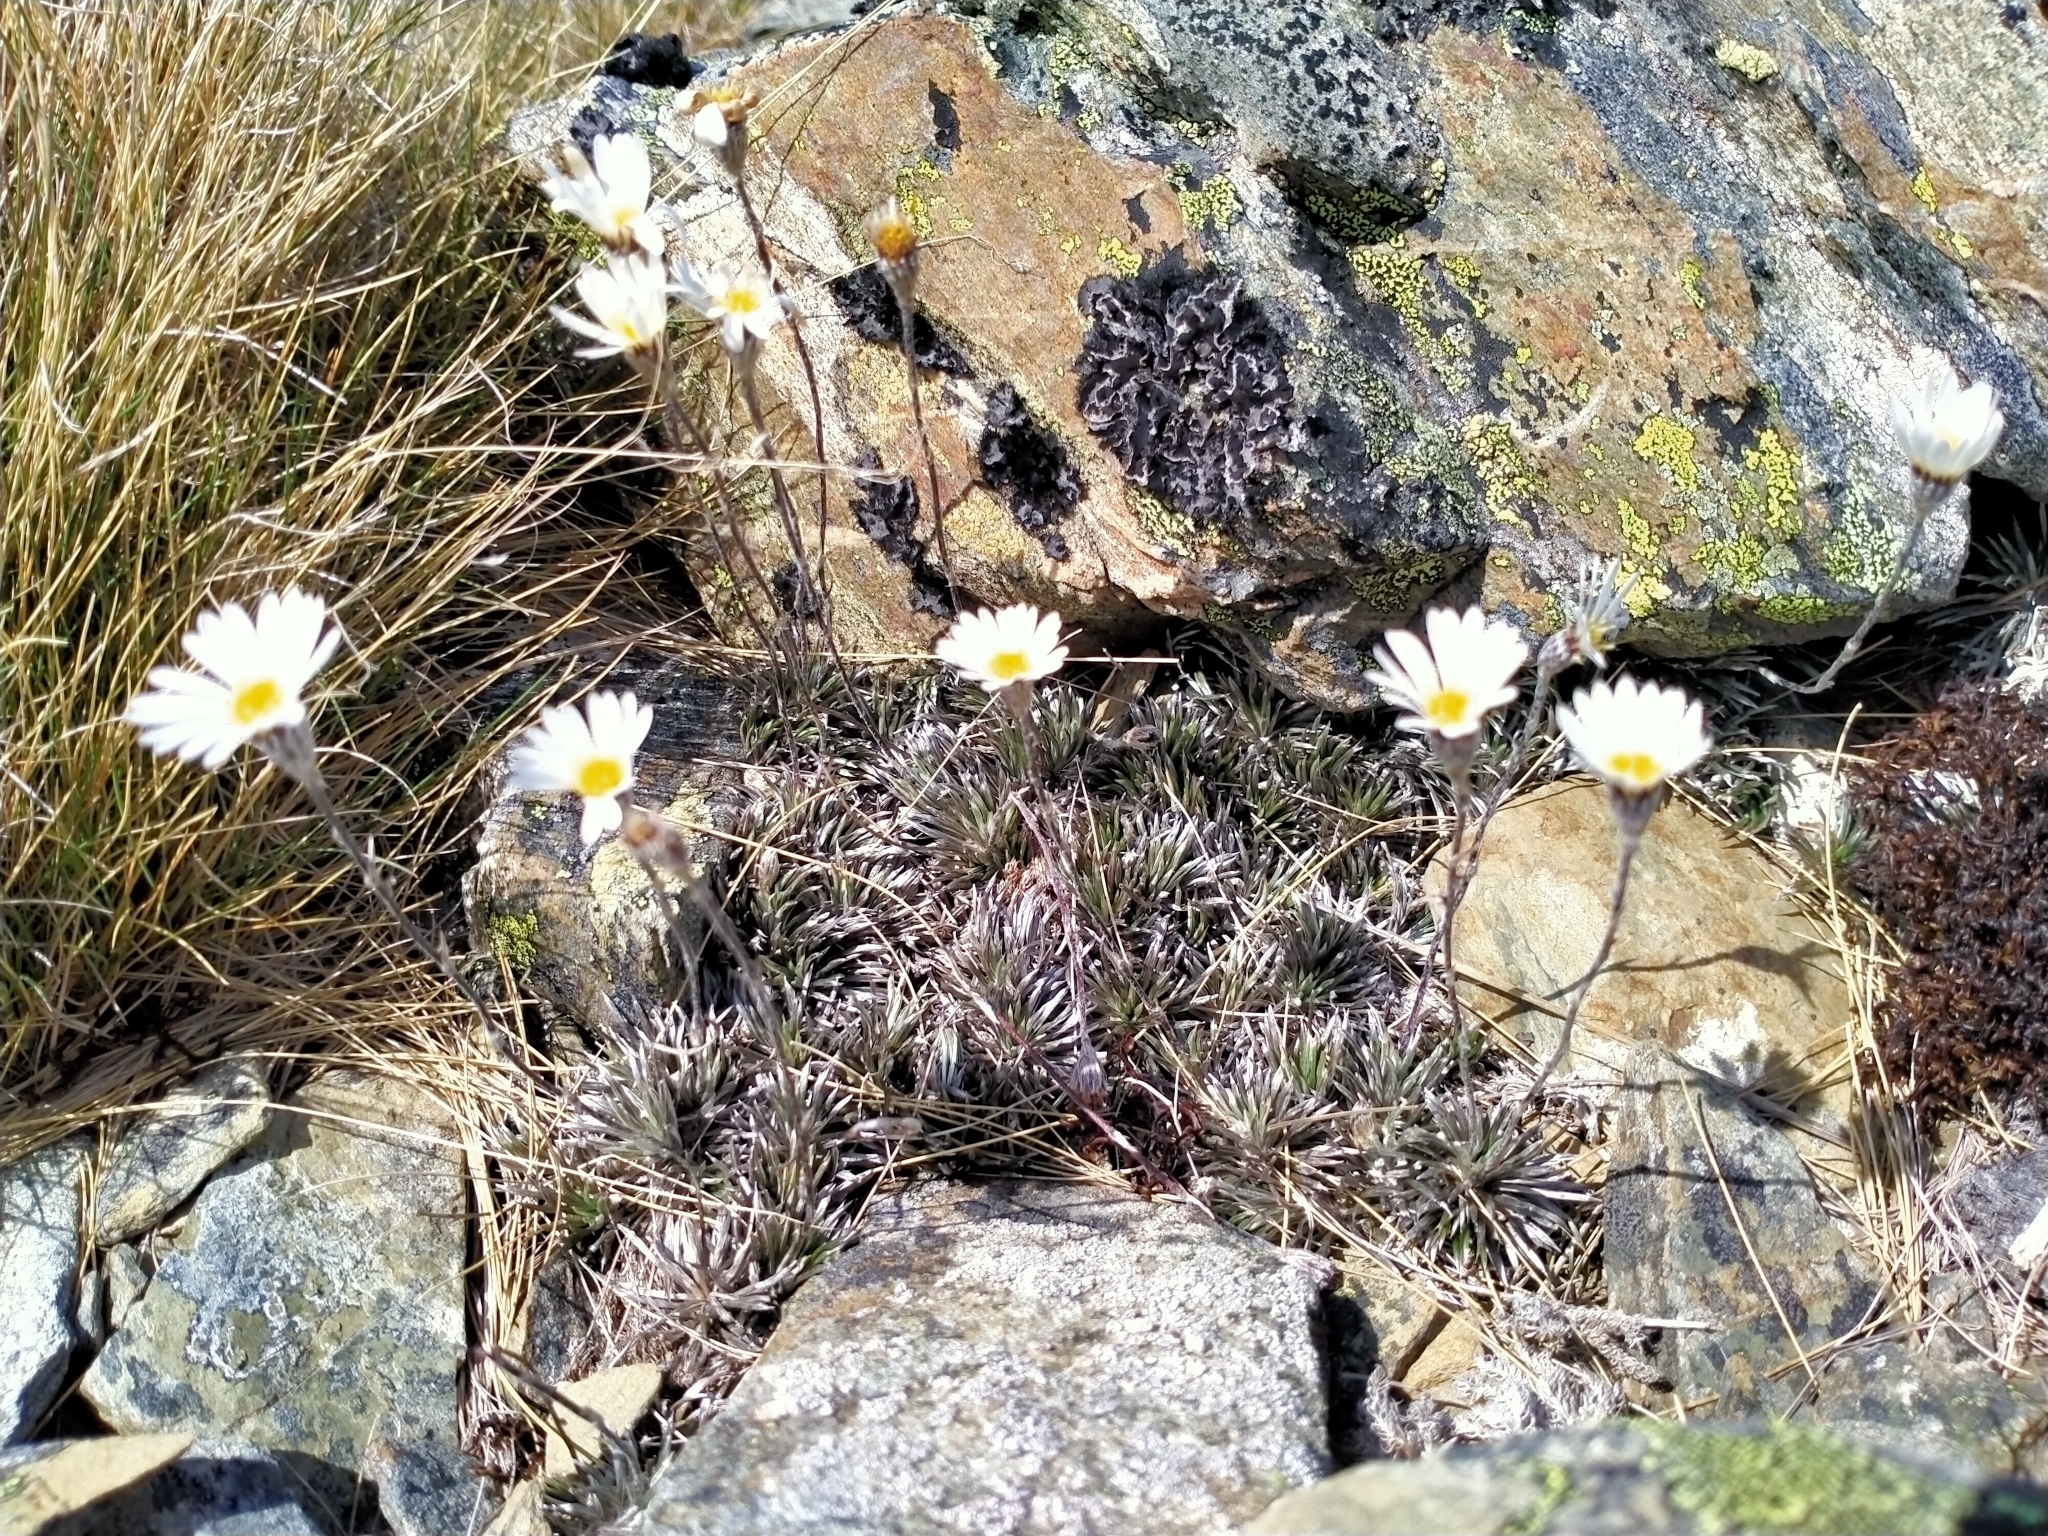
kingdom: Plantae
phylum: Tracheophyta
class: Magnoliopsida
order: Asterales
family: Asteraceae
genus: Celmisia
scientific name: Celmisia laricifolia
